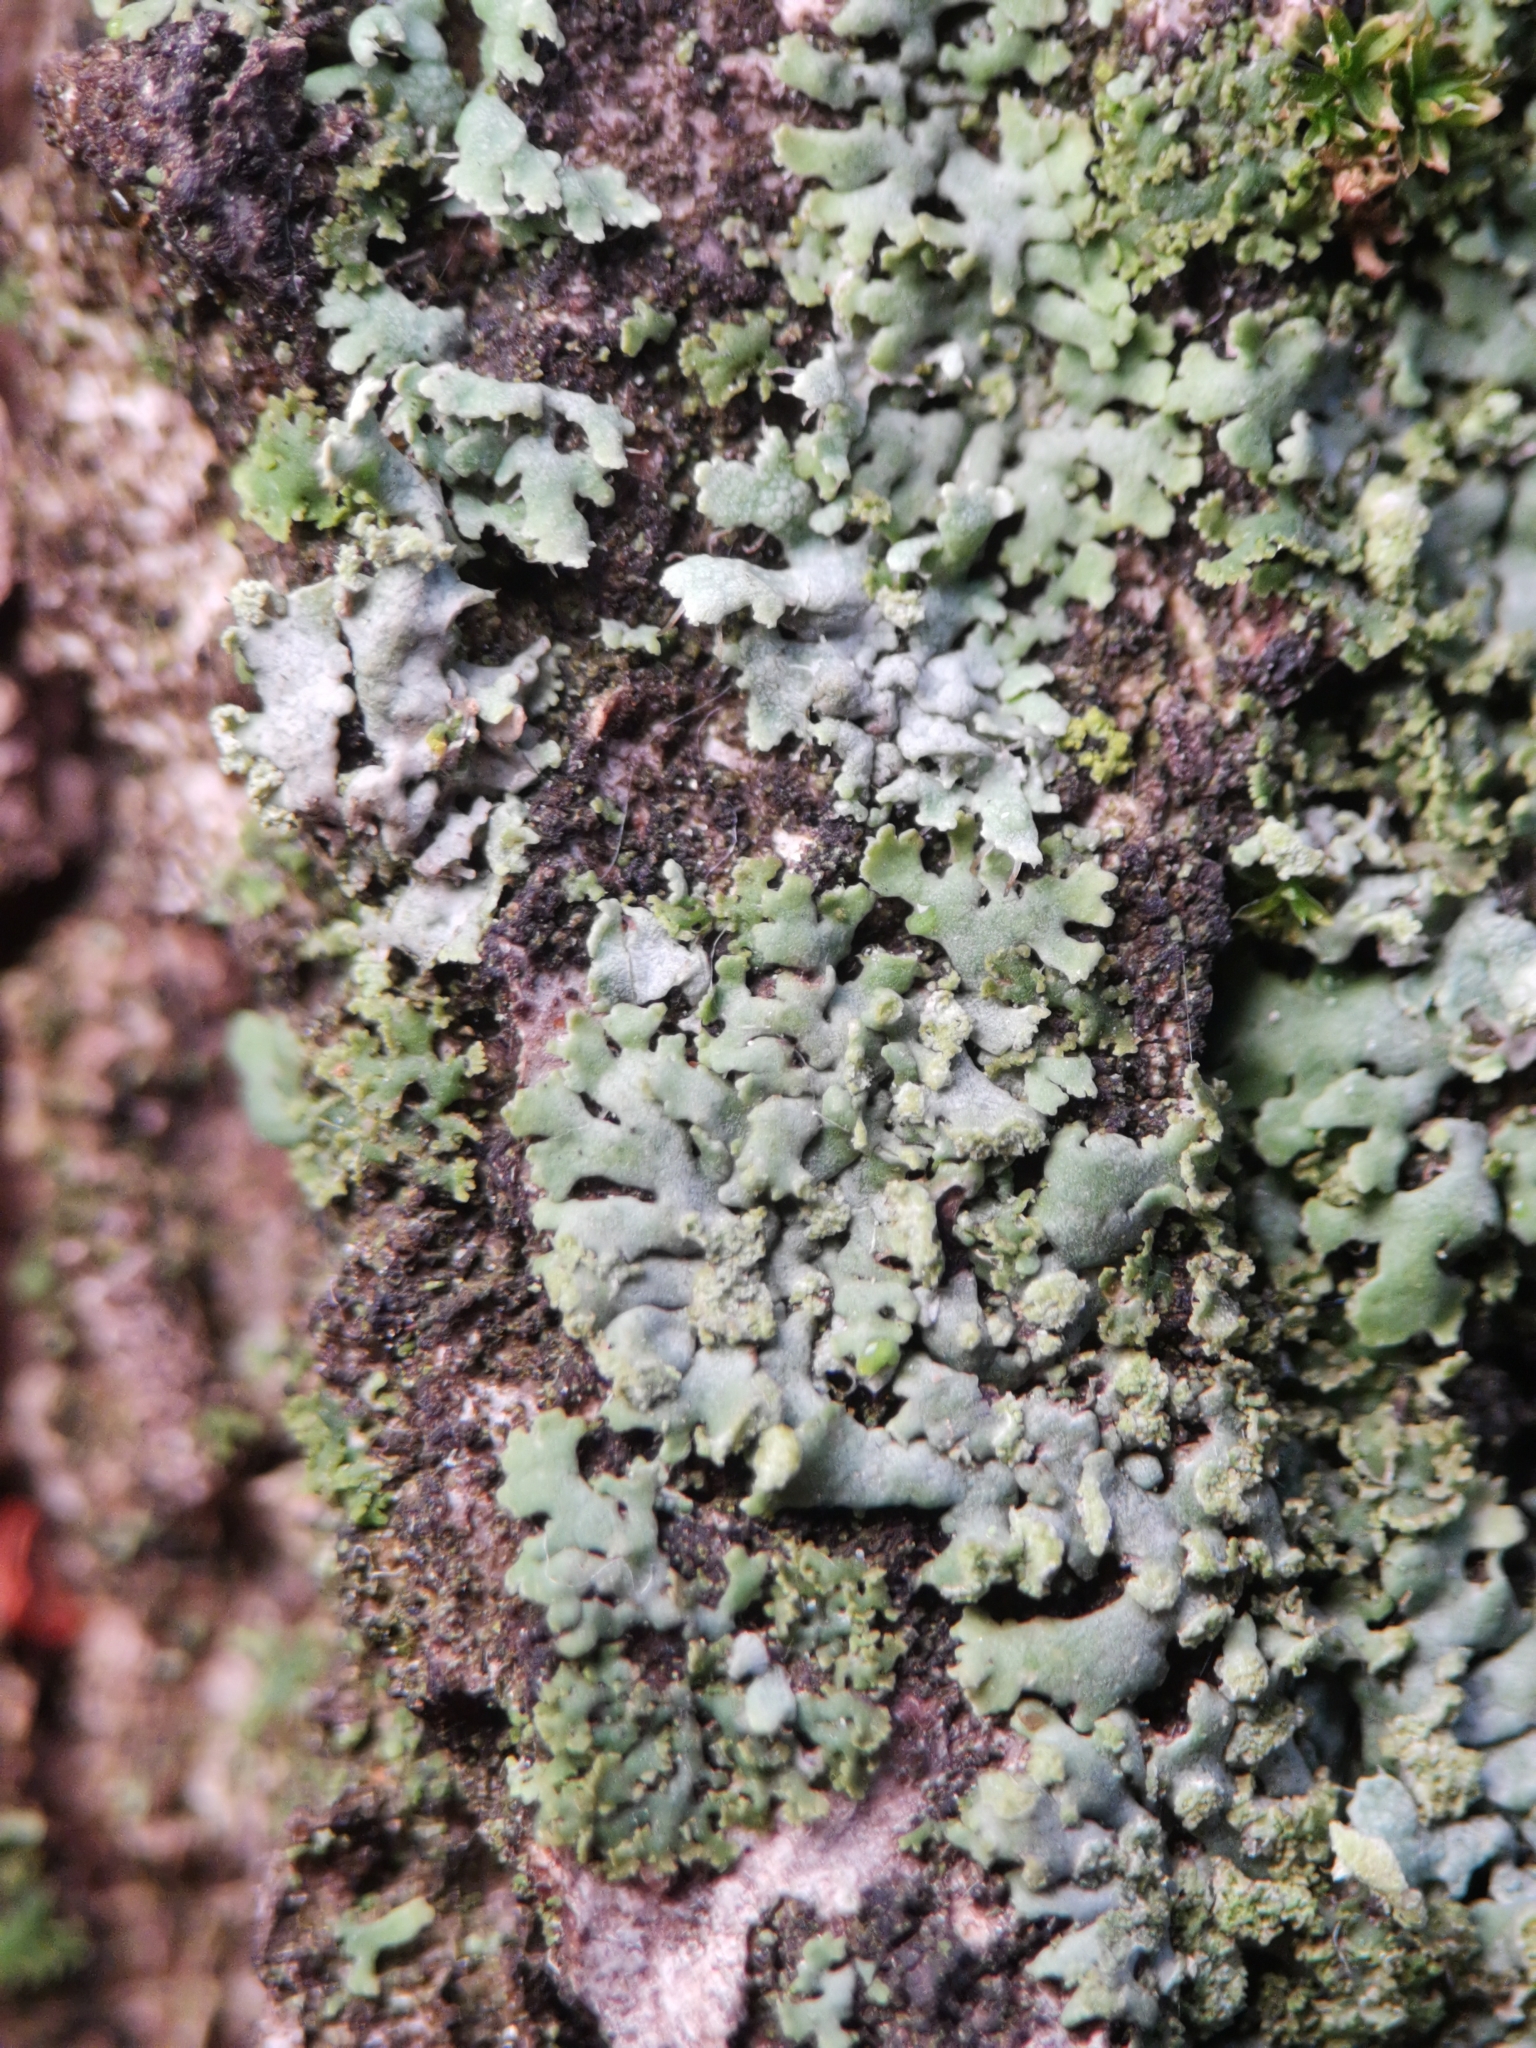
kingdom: Fungi
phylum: Ascomycota
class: Lecanoromycetes
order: Caliciales
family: Physciaceae
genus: Phaeophyscia
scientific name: Phaeophyscia orbicularis
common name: Mealy shadow lichen
